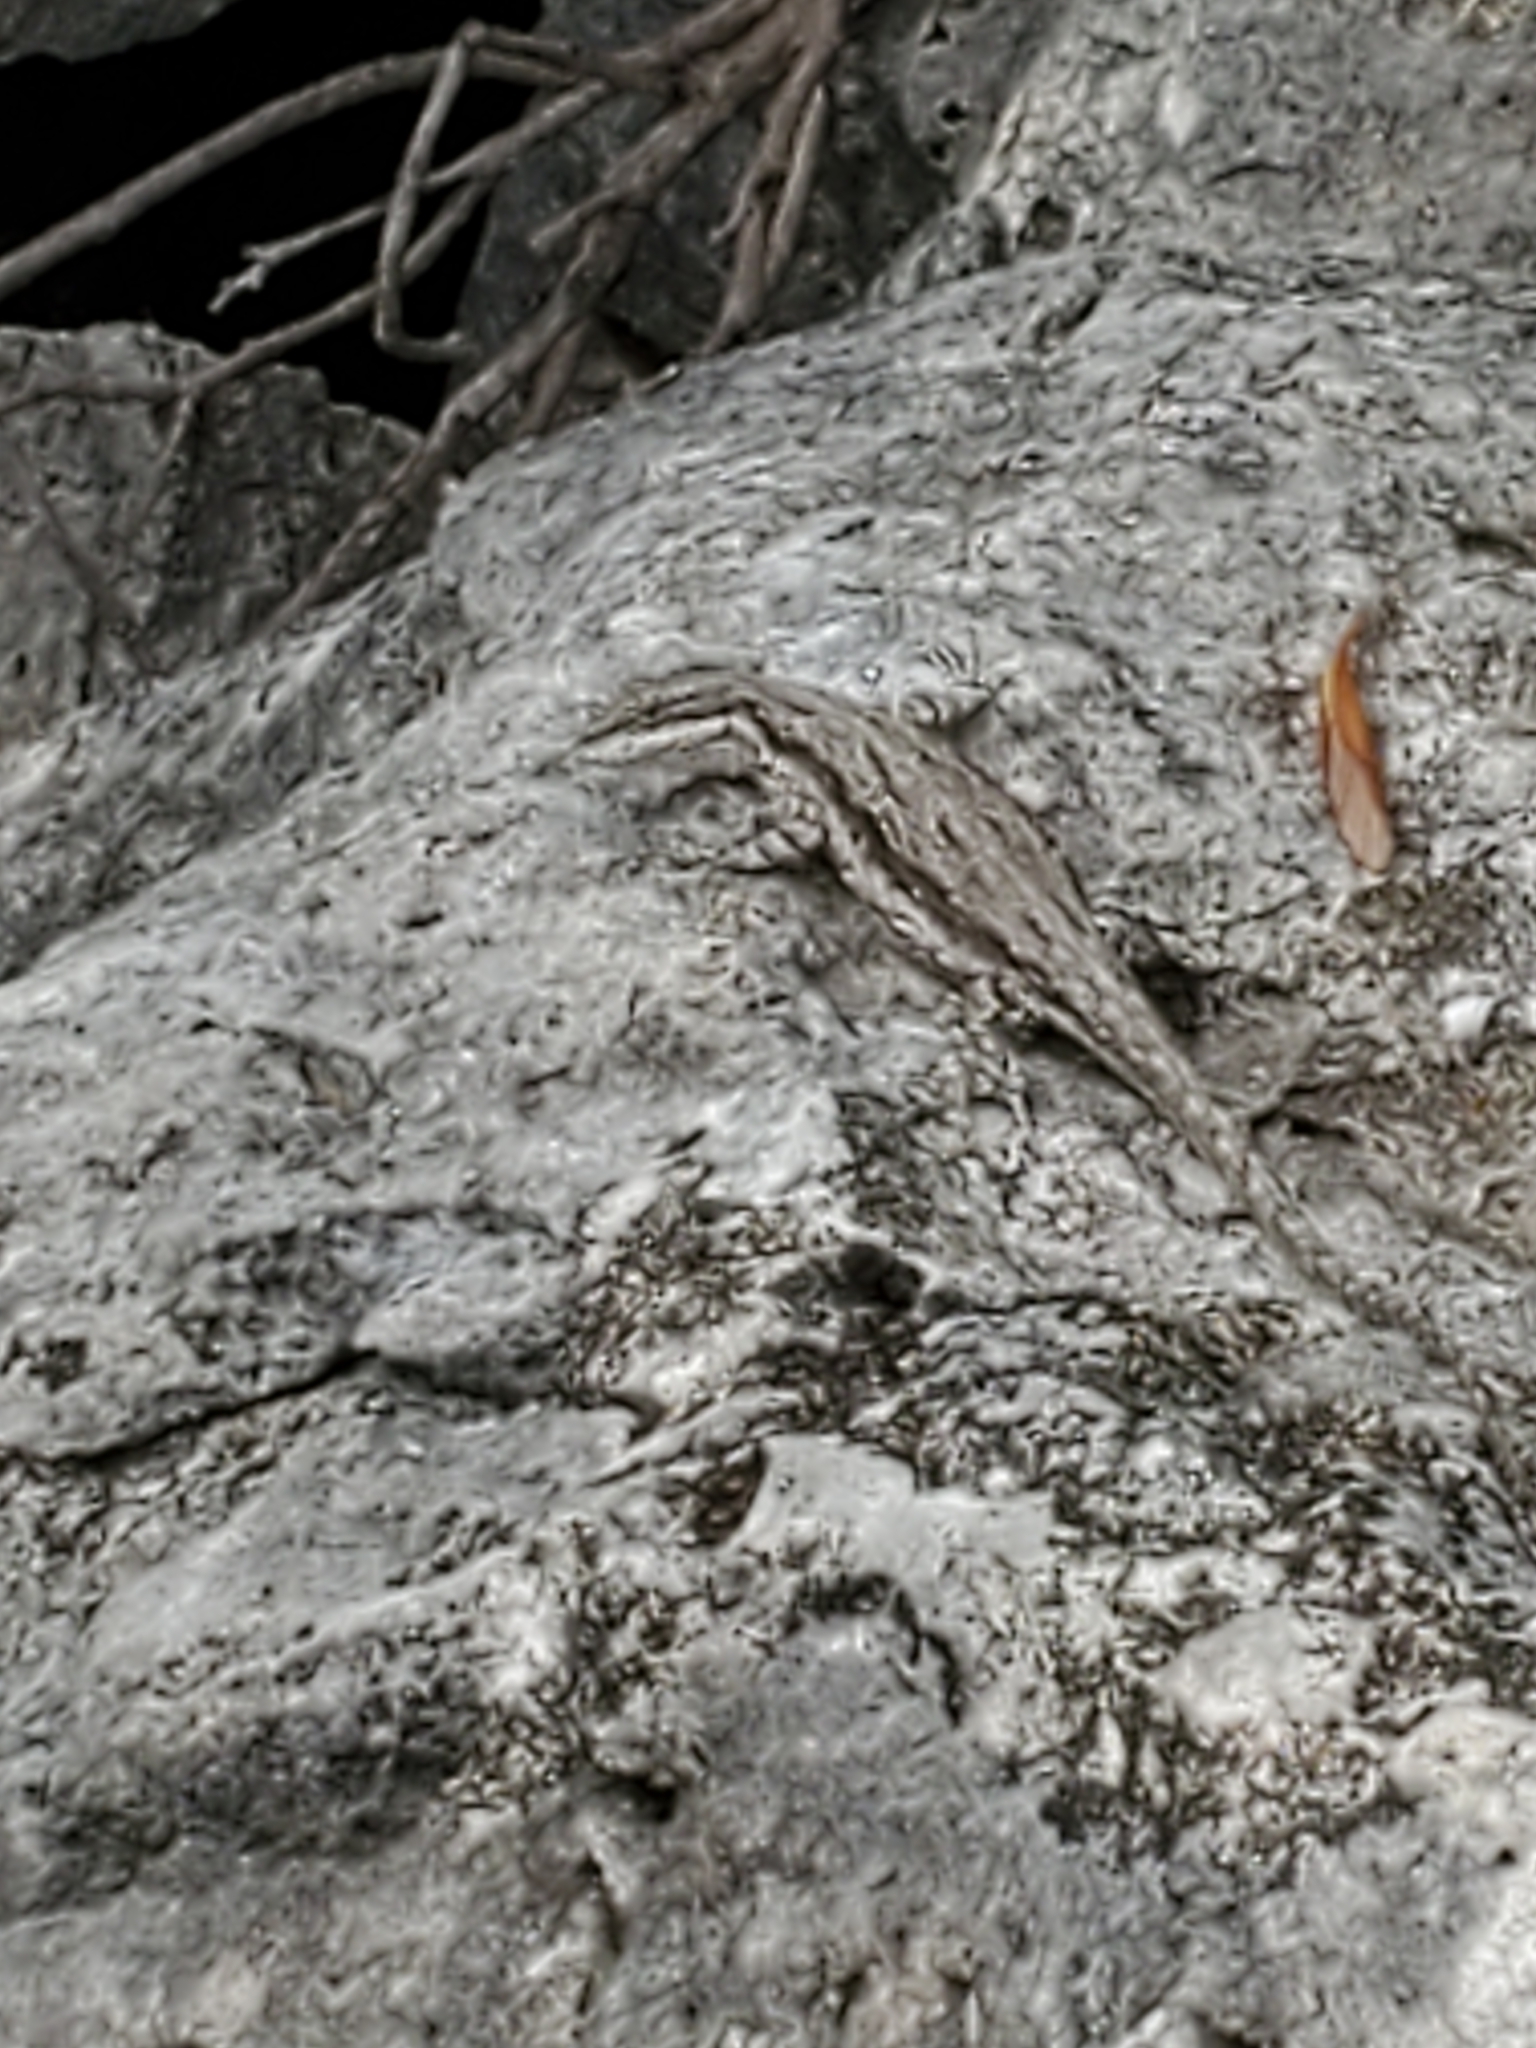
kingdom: Animalia
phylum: Chordata
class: Squamata
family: Phrynosomatidae
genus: Urosaurus
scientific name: Urosaurus ornatus
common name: Ornate tree lizard
